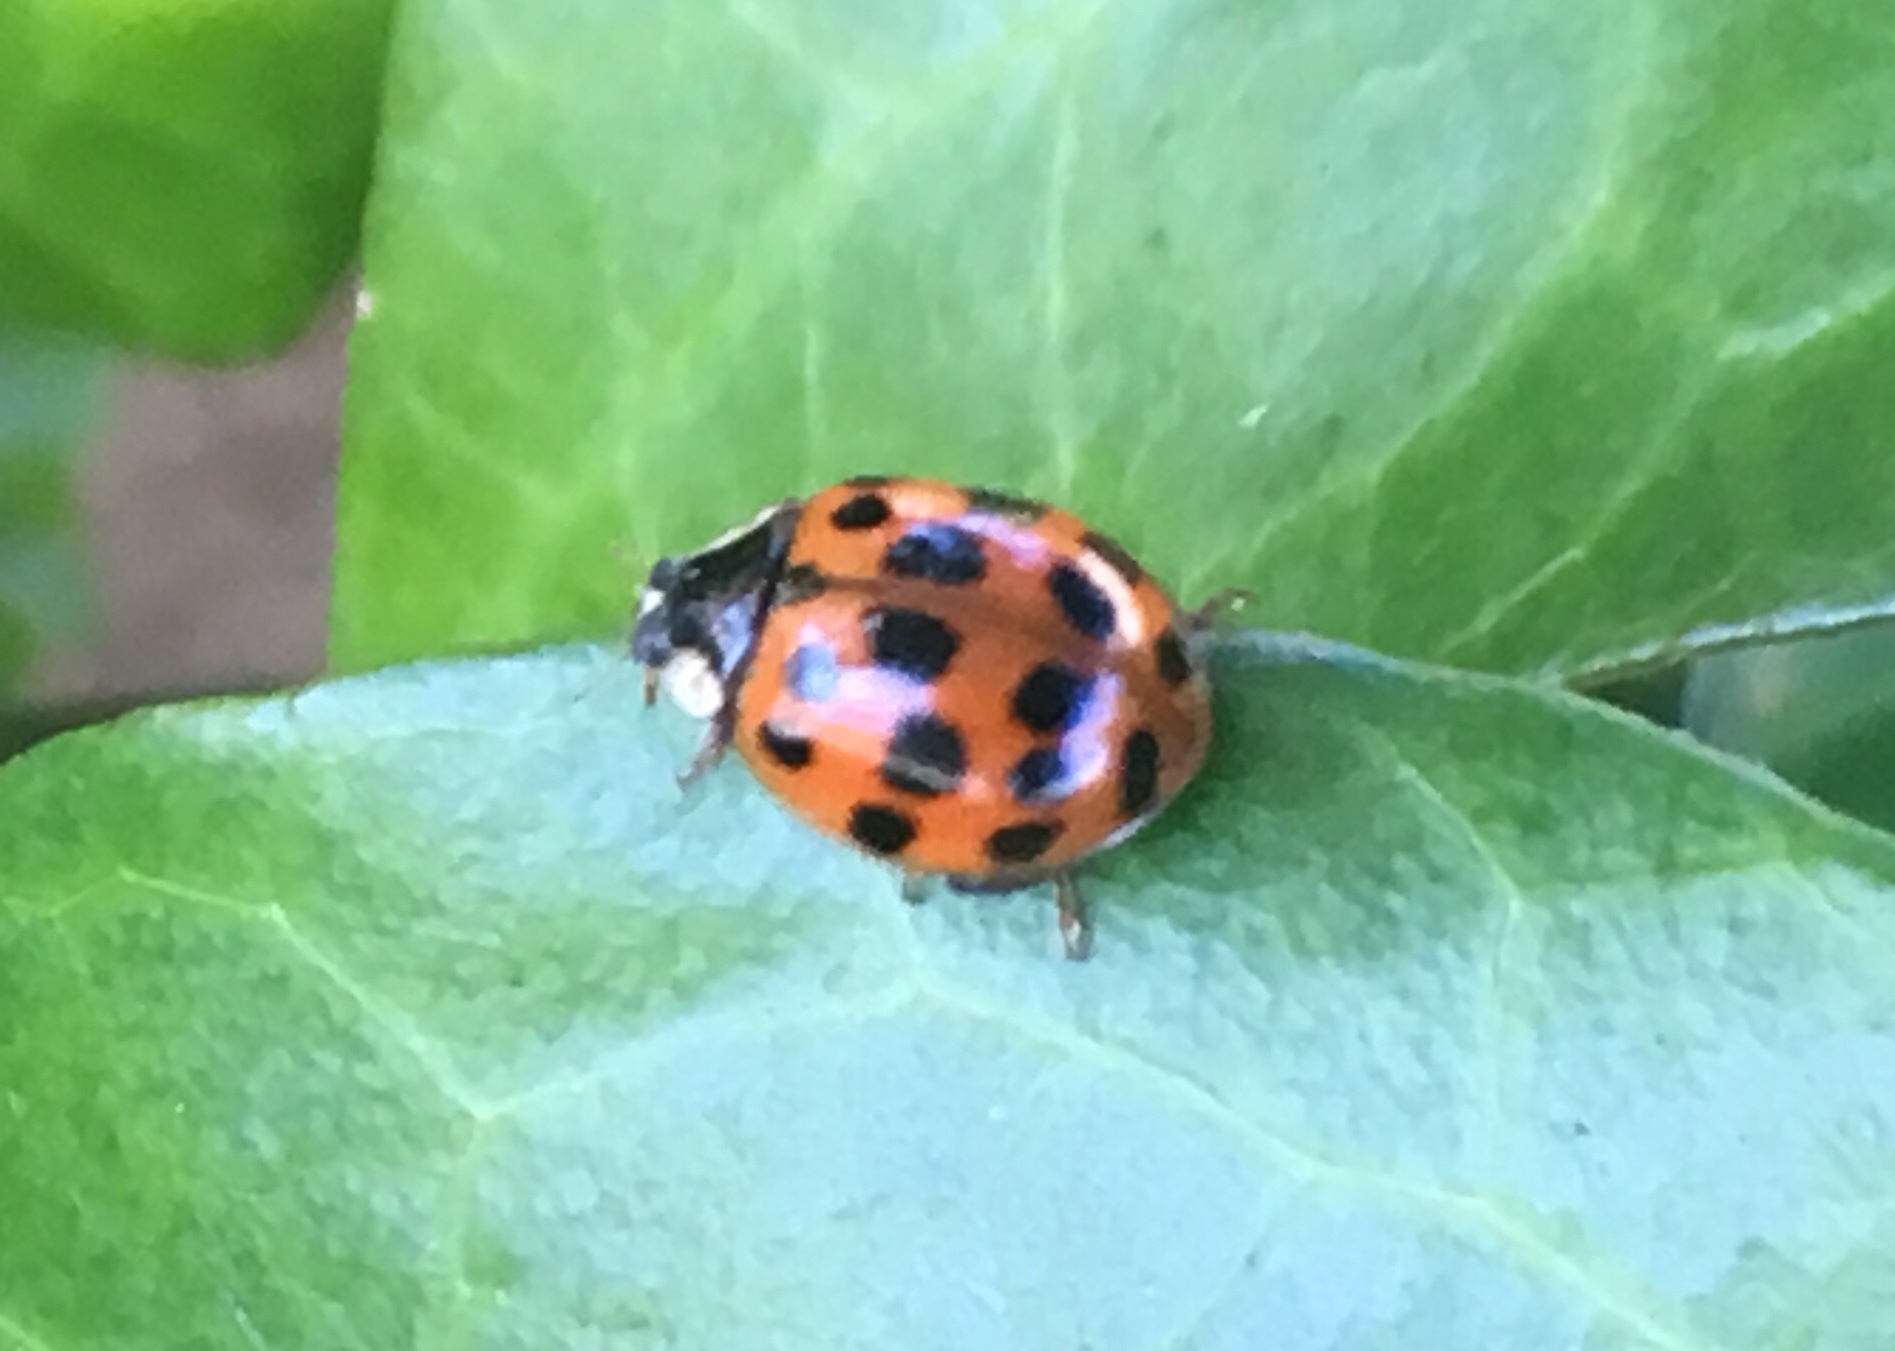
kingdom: Animalia
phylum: Arthropoda
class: Insecta
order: Coleoptera
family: Coccinellidae
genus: Harmonia
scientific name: Harmonia axyridis
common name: Harlequin ladybird
